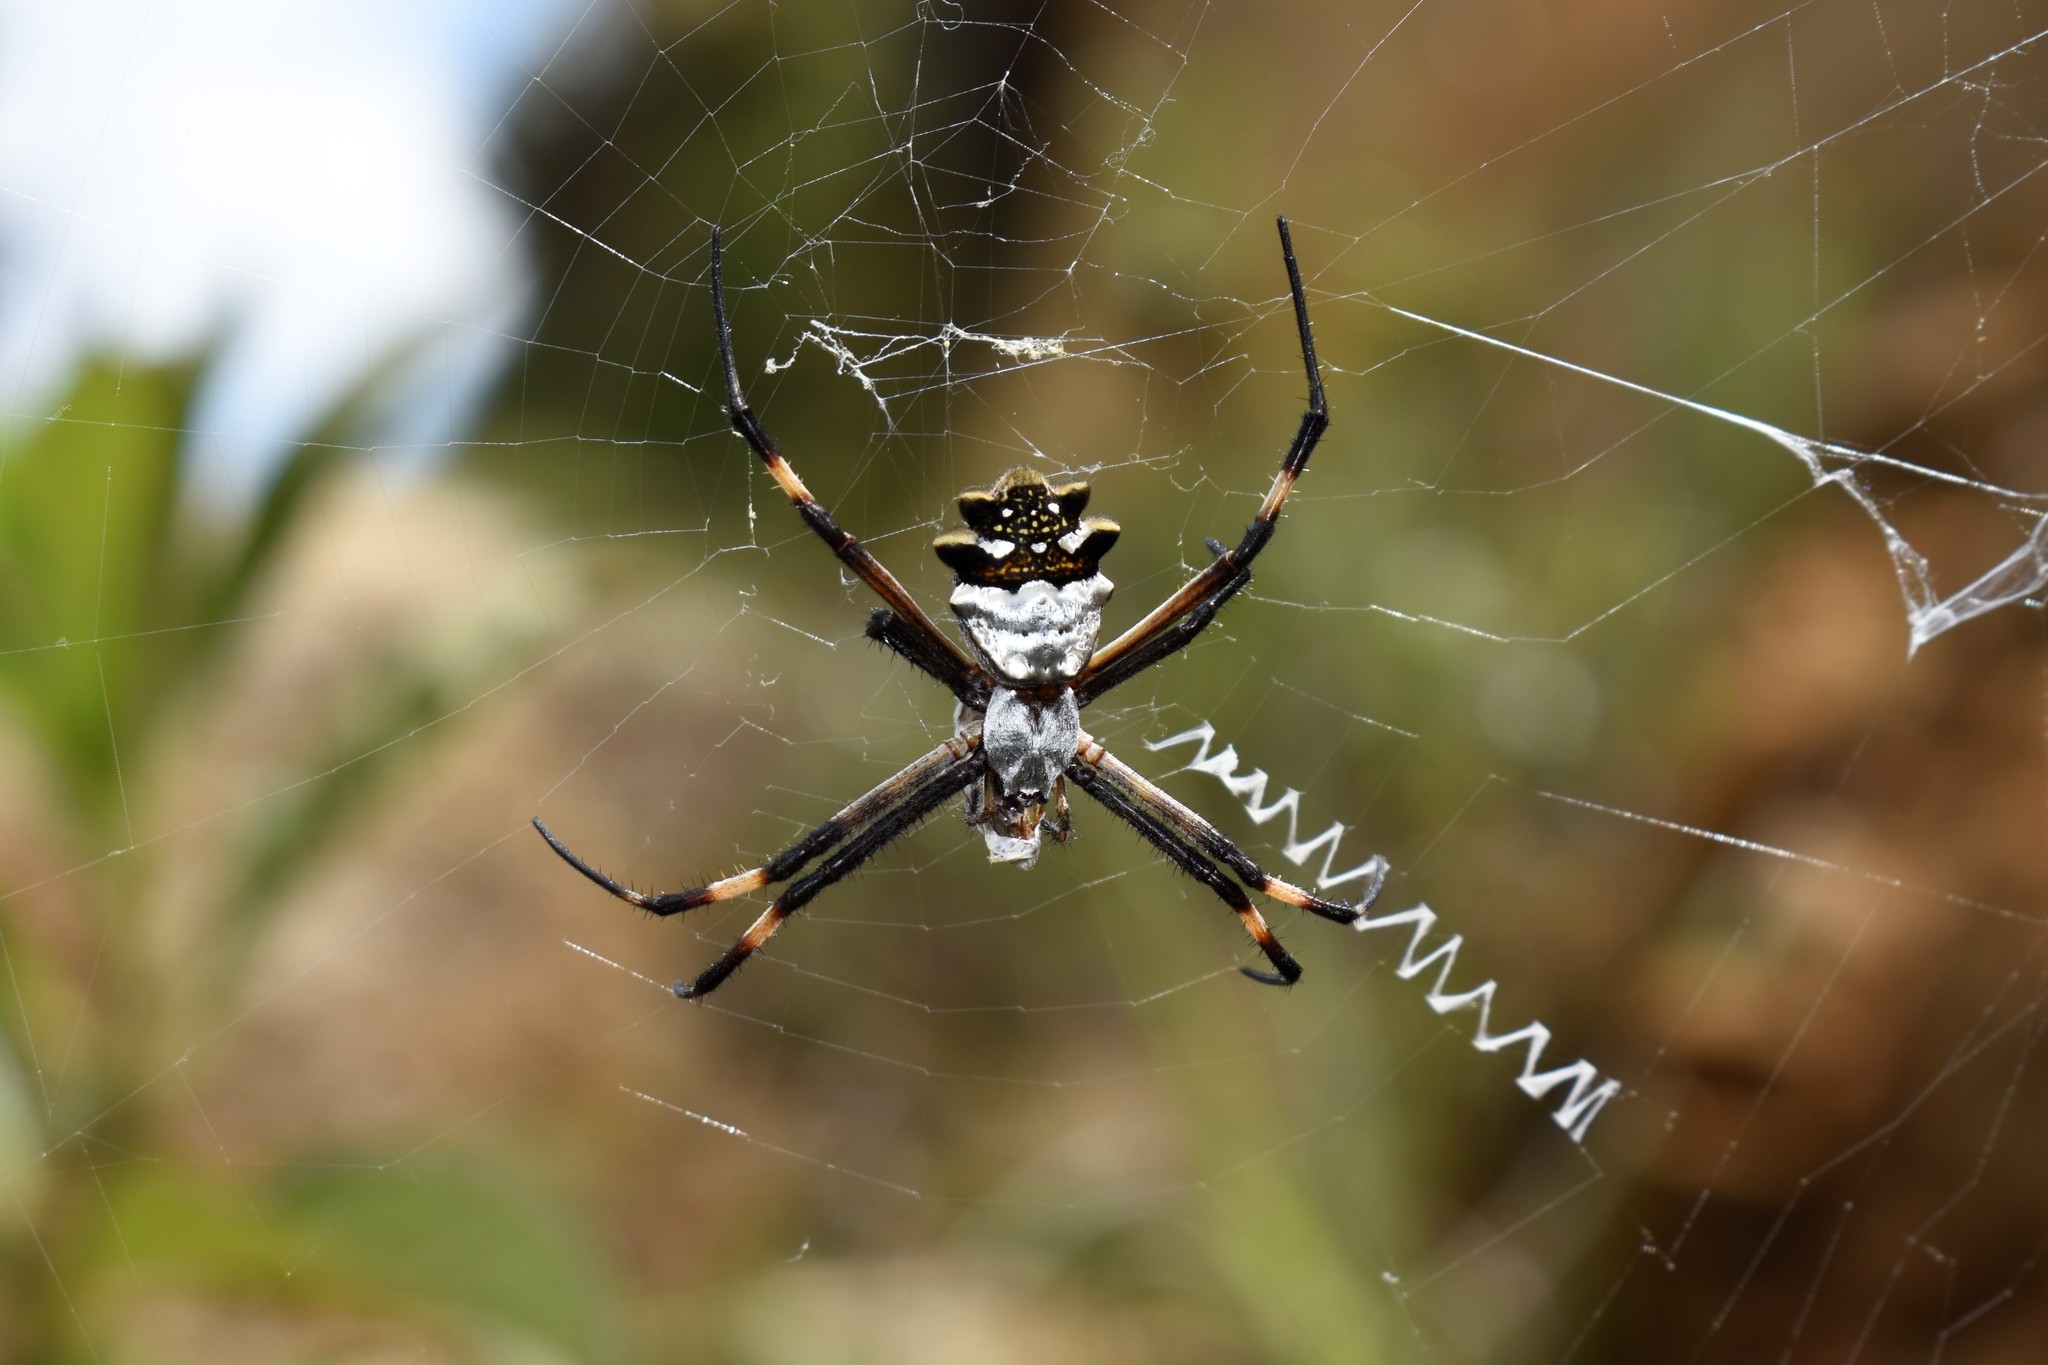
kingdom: Animalia
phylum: Arthropoda
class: Arachnida
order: Araneae
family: Araneidae
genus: Argiope
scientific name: Argiope argentata
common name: Orb weavers
